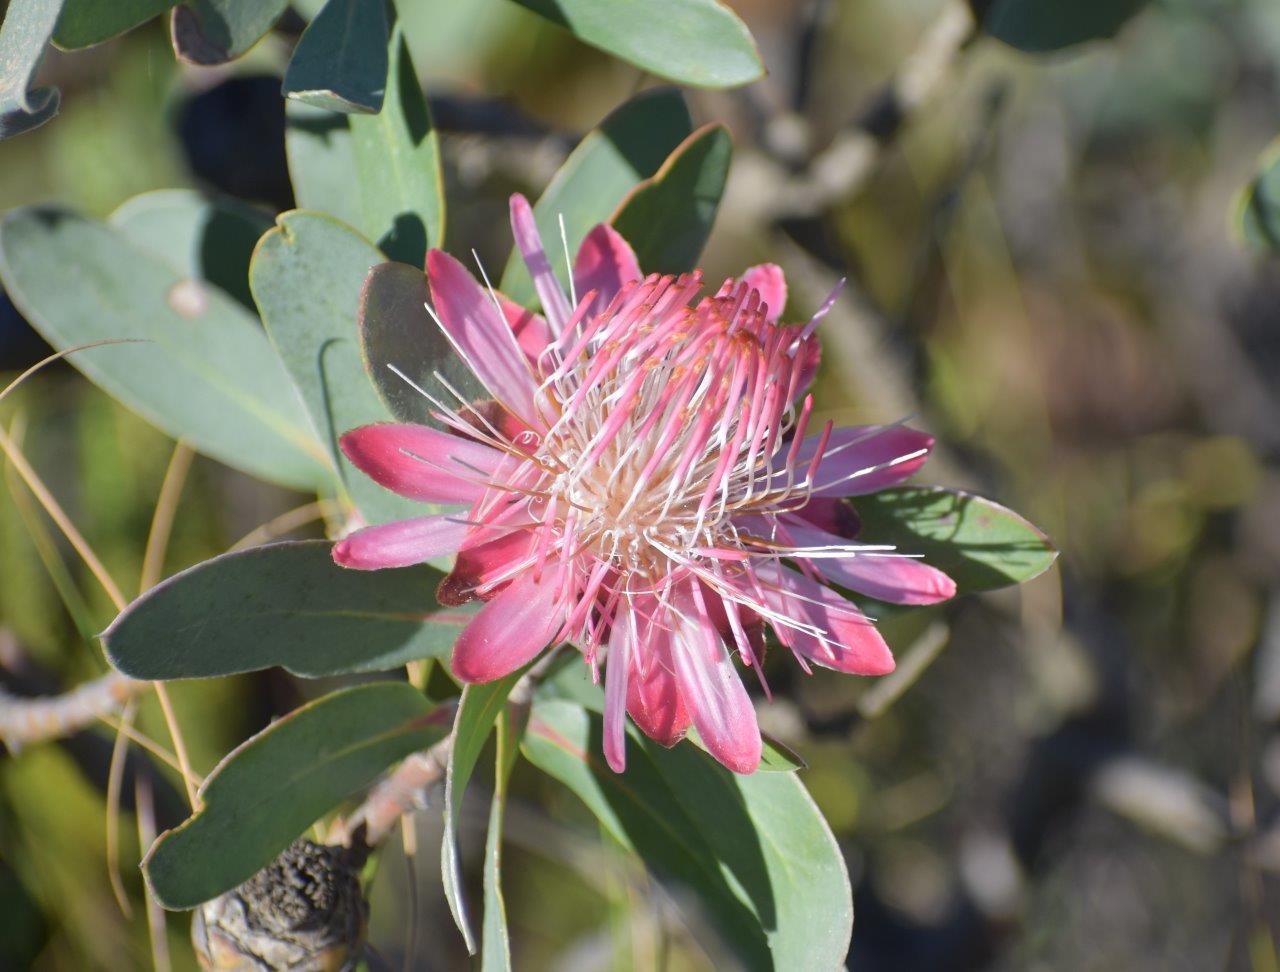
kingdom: Plantae
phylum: Tracheophyta
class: Magnoliopsida
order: Proteales
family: Proteaceae
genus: Protea
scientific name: Protea punctata
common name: Water sugarbush
